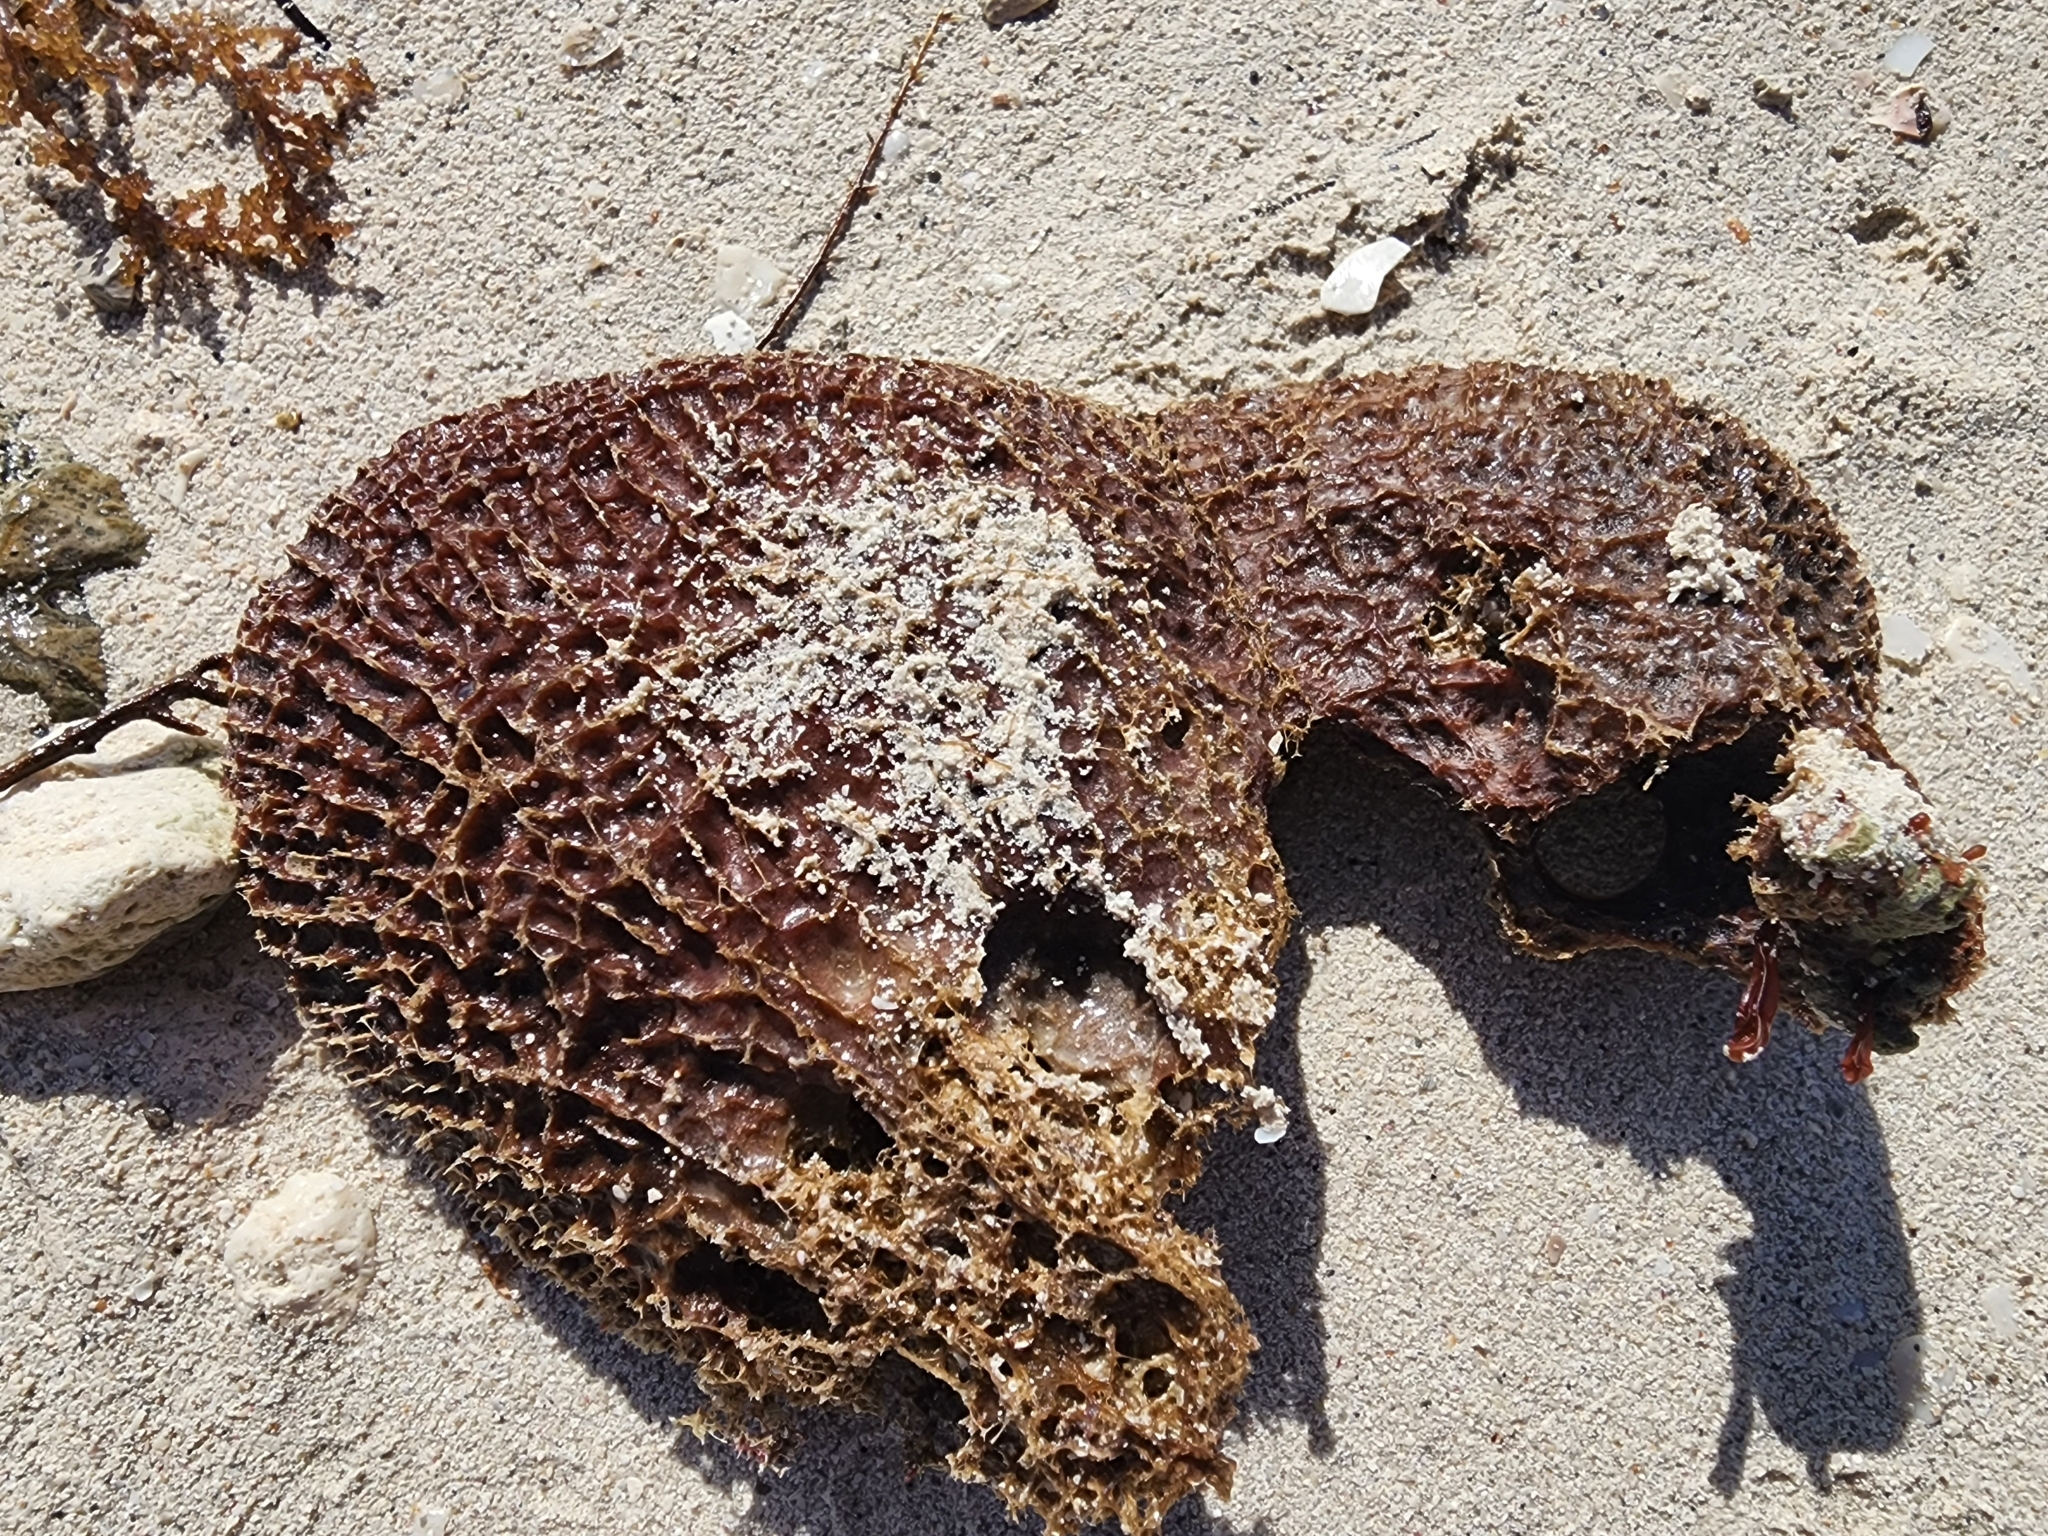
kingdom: Animalia
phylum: Porifera
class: Demospongiae
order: Dictyoceratida
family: Irciniidae
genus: Ircinia
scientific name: Ircinia campana
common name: Vase sponge
